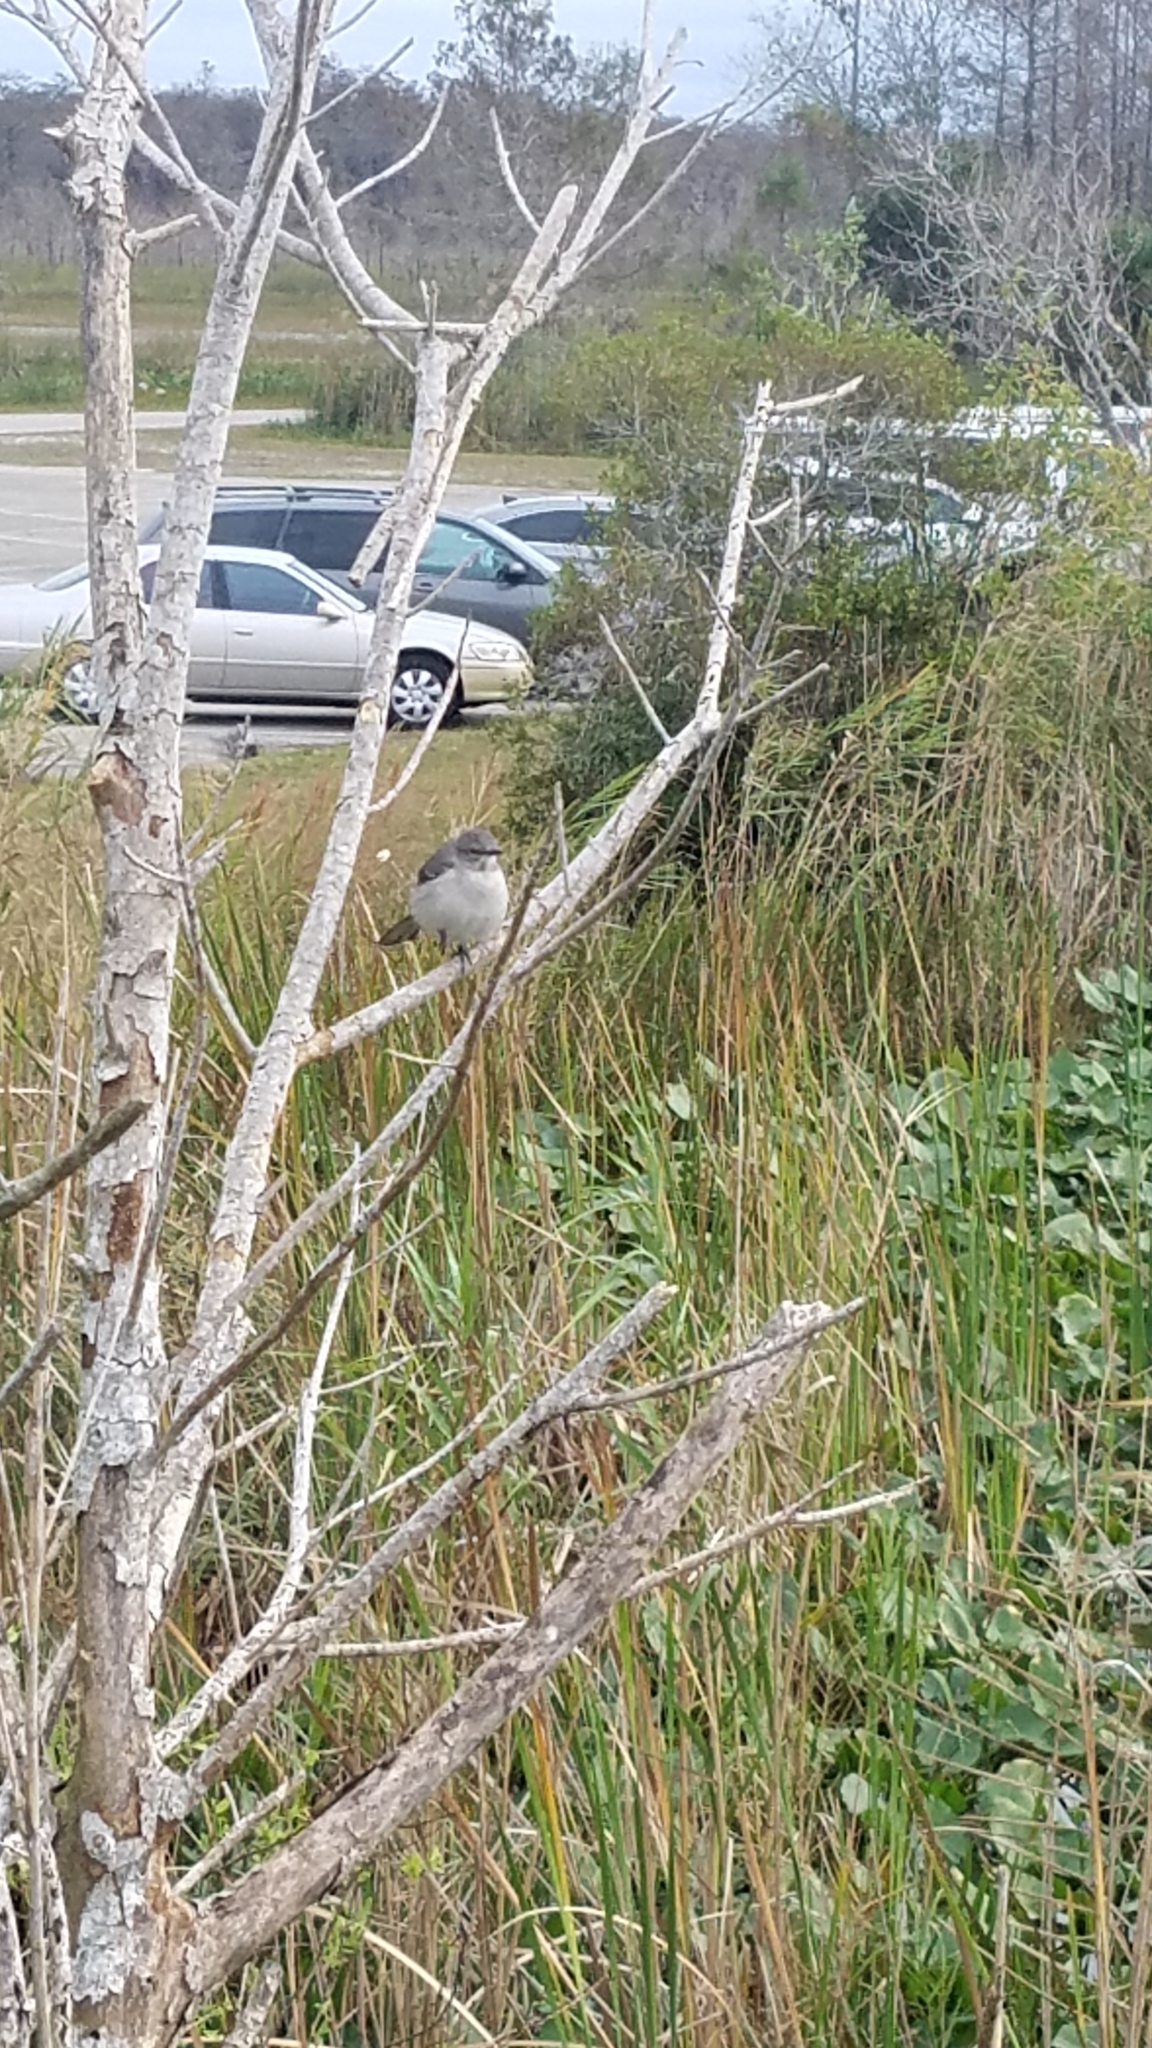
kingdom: Animalia
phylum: Chordata
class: Aves
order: Passeriformes
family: Mimidae
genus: Mimus
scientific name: Mimus polyglottos
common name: Northern mockingbird
